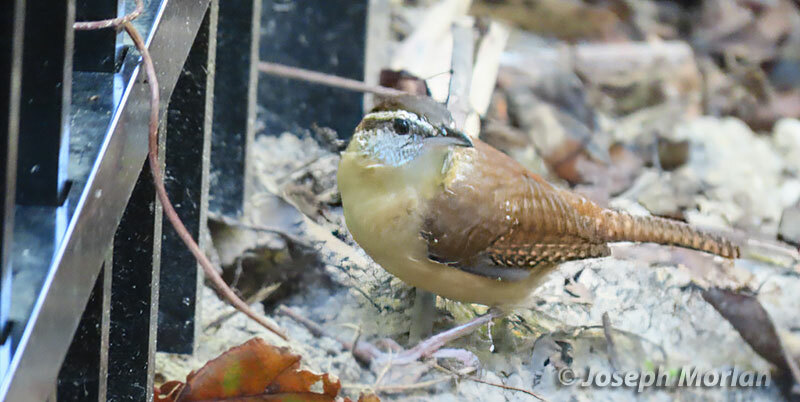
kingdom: Animalia
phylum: Chordata
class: Aves
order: Passeriformes
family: Troglodytidae
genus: Thryothorus
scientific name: Thryothorus ludovicianus
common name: Carolina wren
